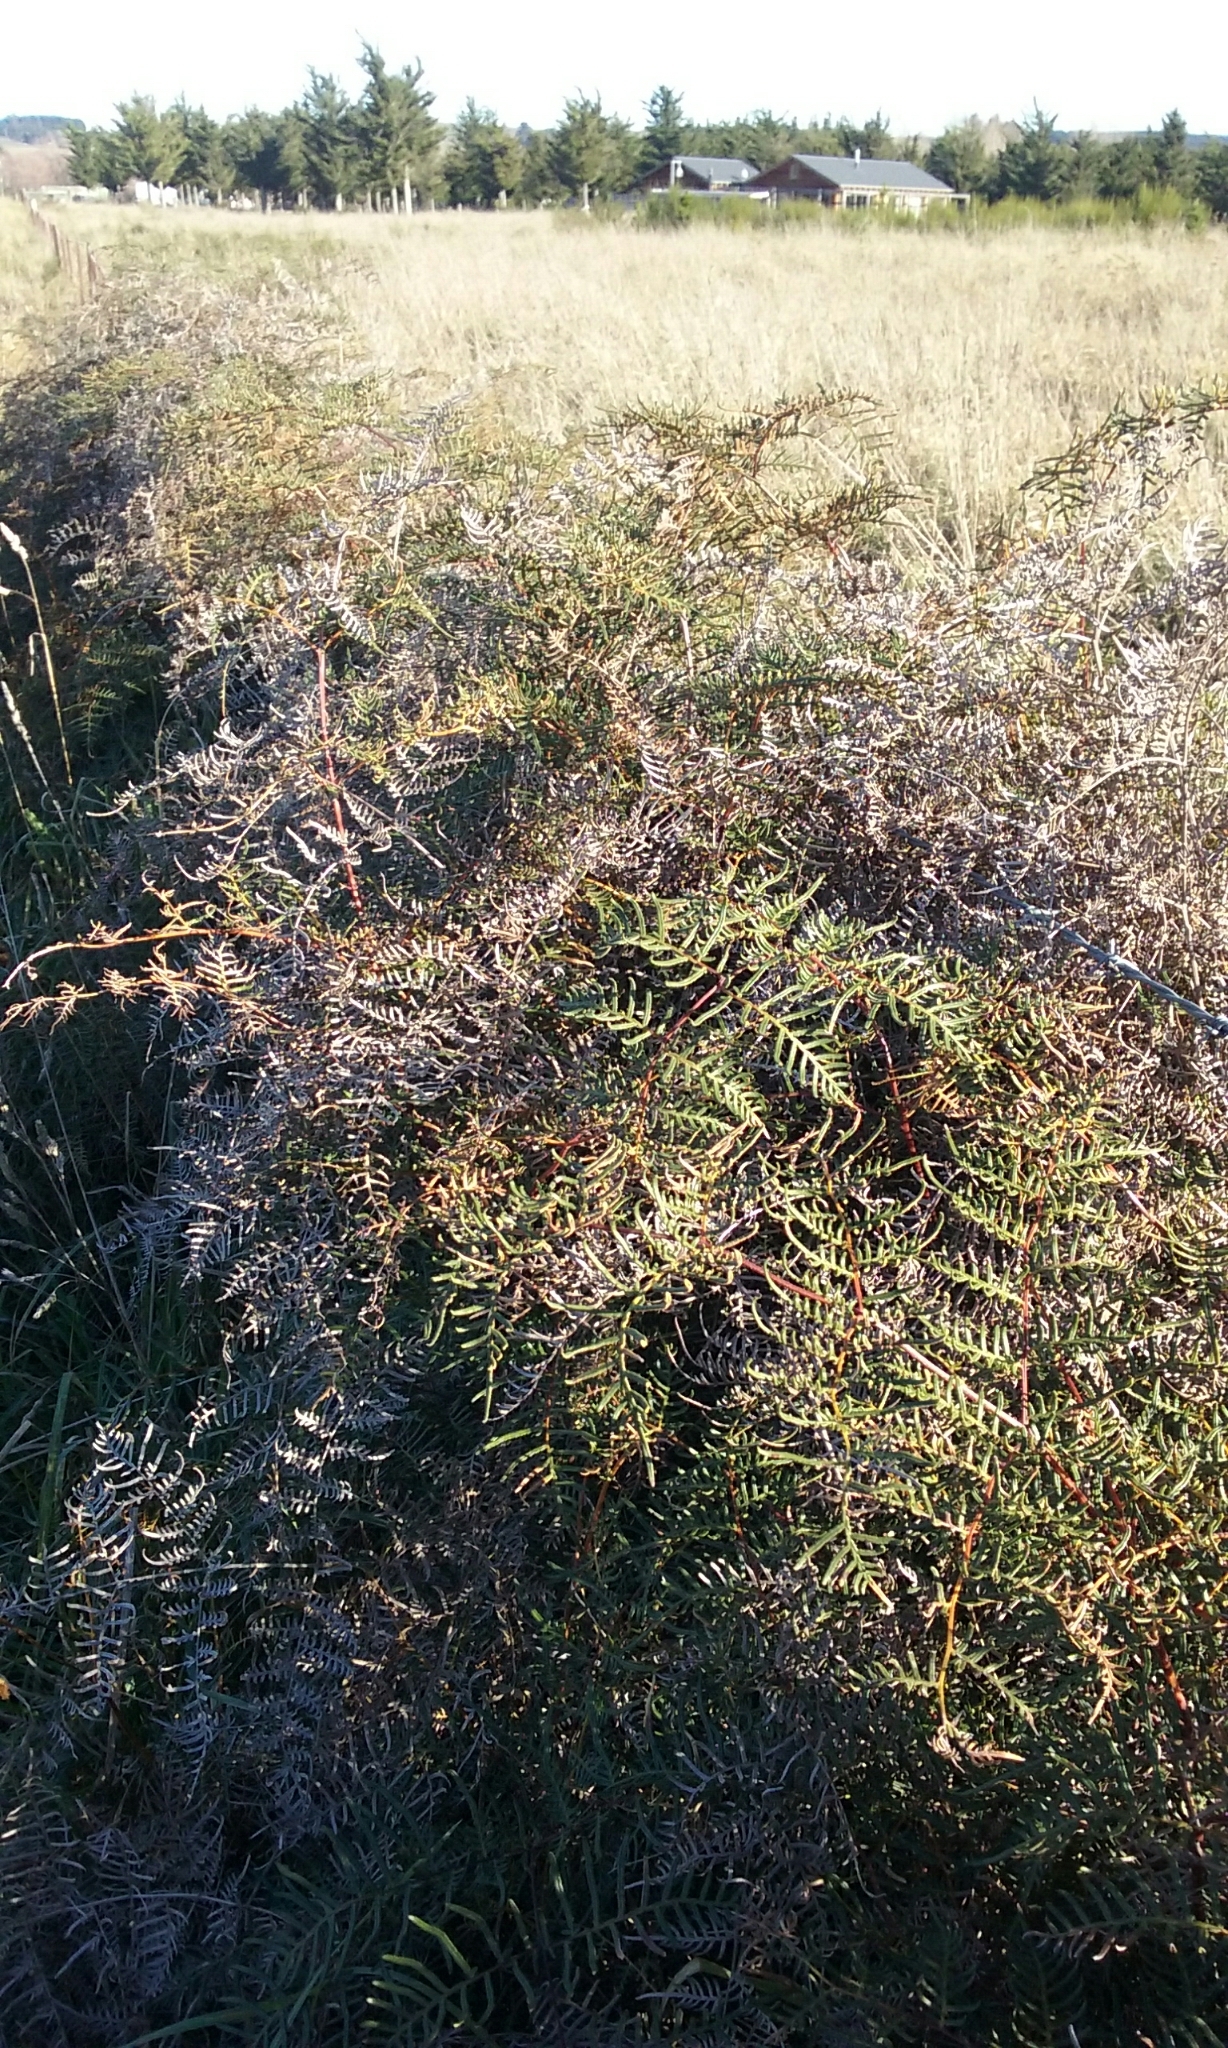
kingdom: Plantae
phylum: Tracheophyta
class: Polypodiopsida
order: Polypodiales
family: Dennstaedtiaceae
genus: Pteridium
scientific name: Pteridium esculentum
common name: Bracken fern
